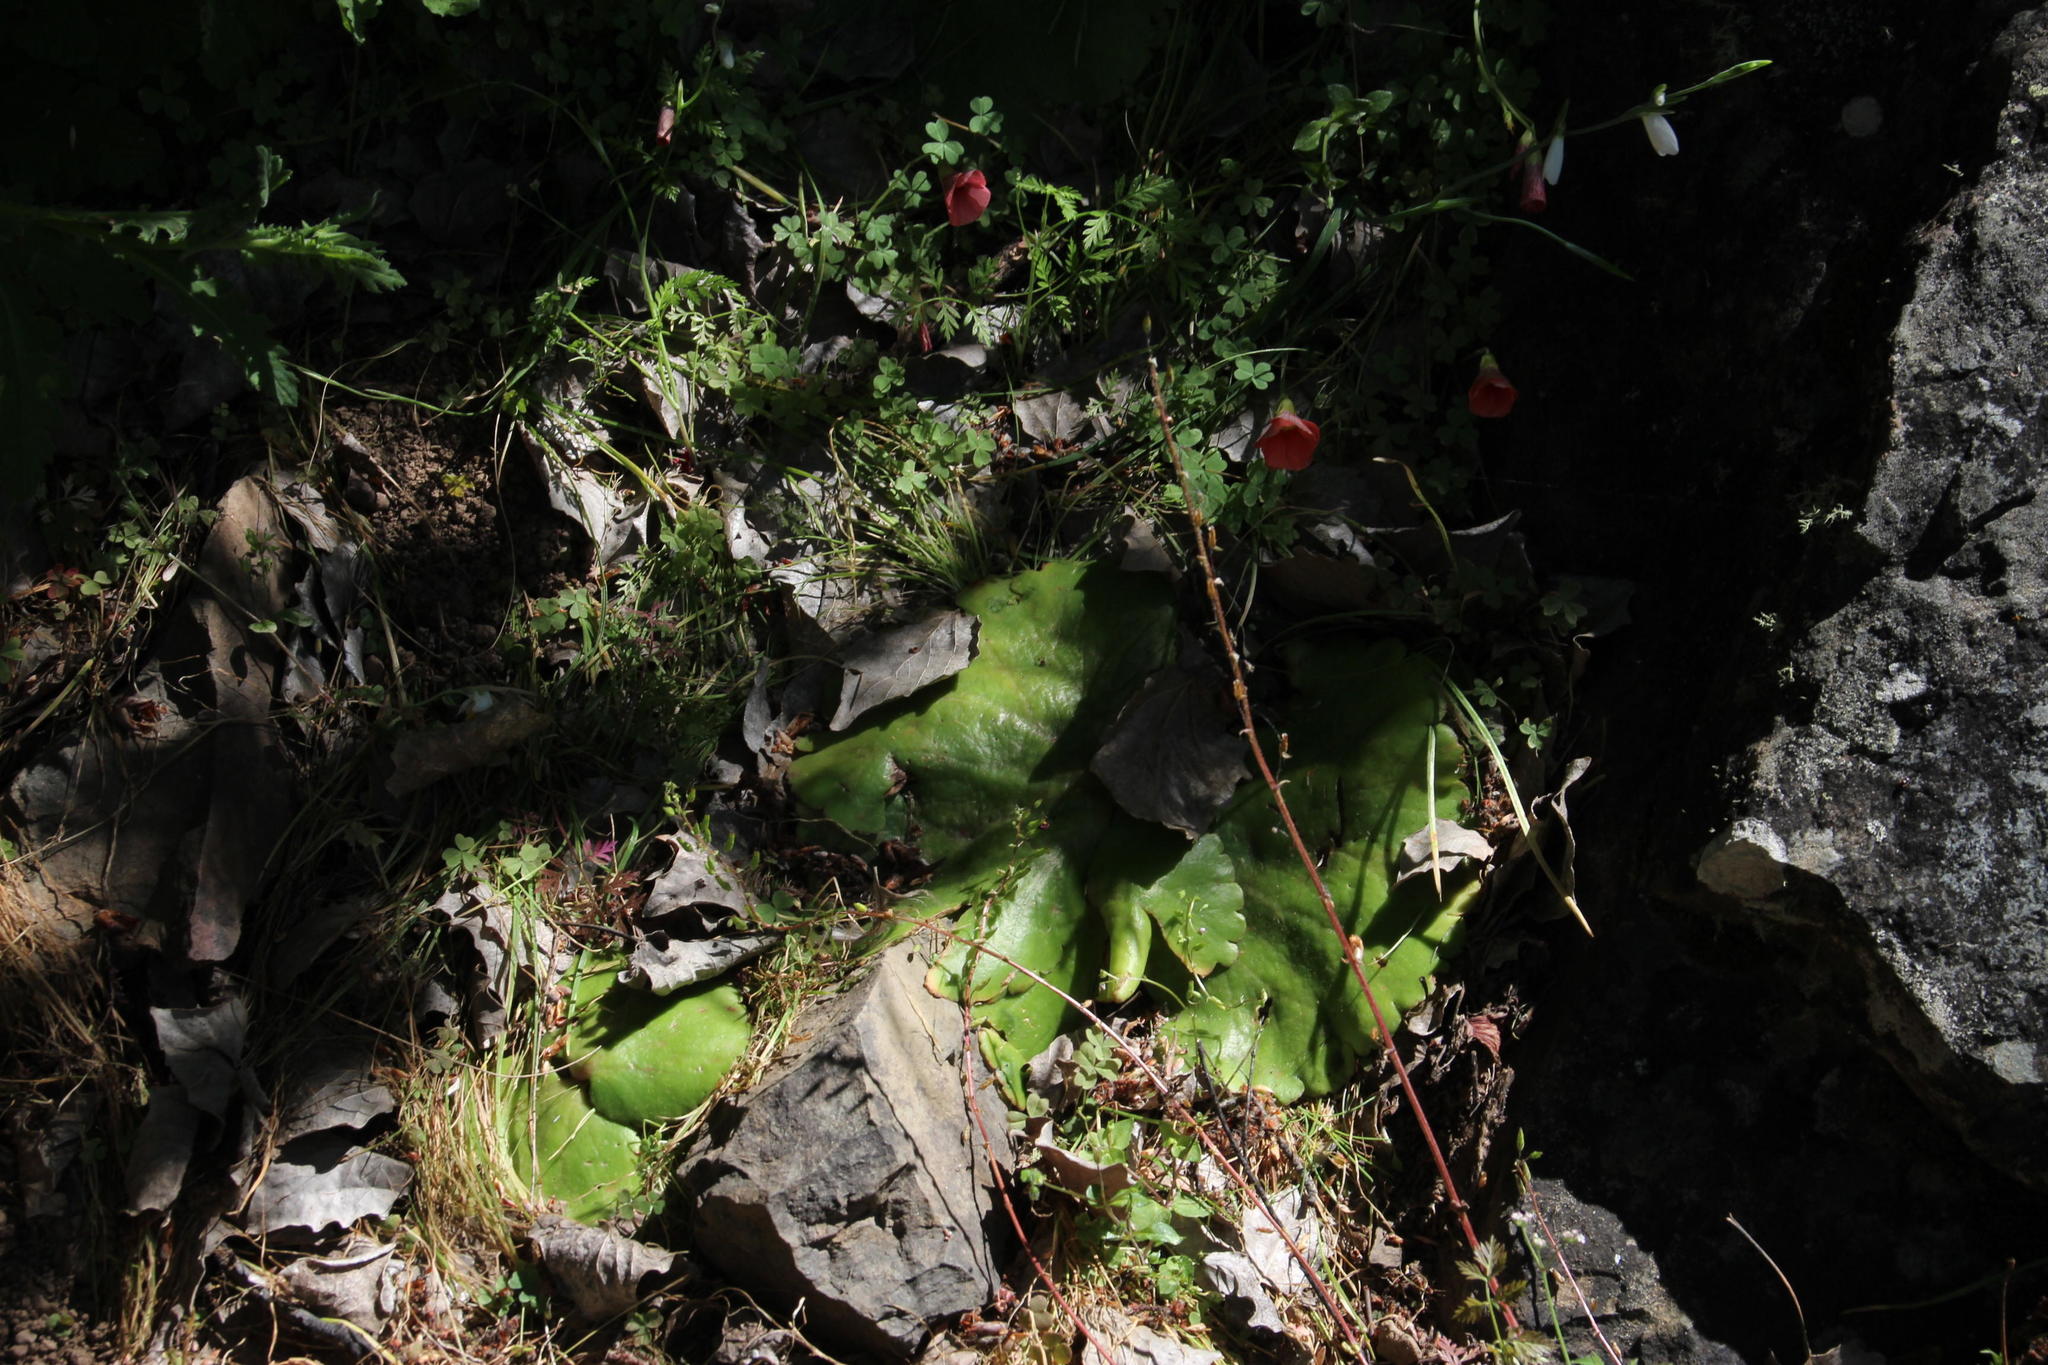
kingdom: Plantae
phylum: Tracheophyta
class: Magnoliopsida
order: Saxifragales
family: Crassulaceae
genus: Crassula
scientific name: Crassula saxifraga
